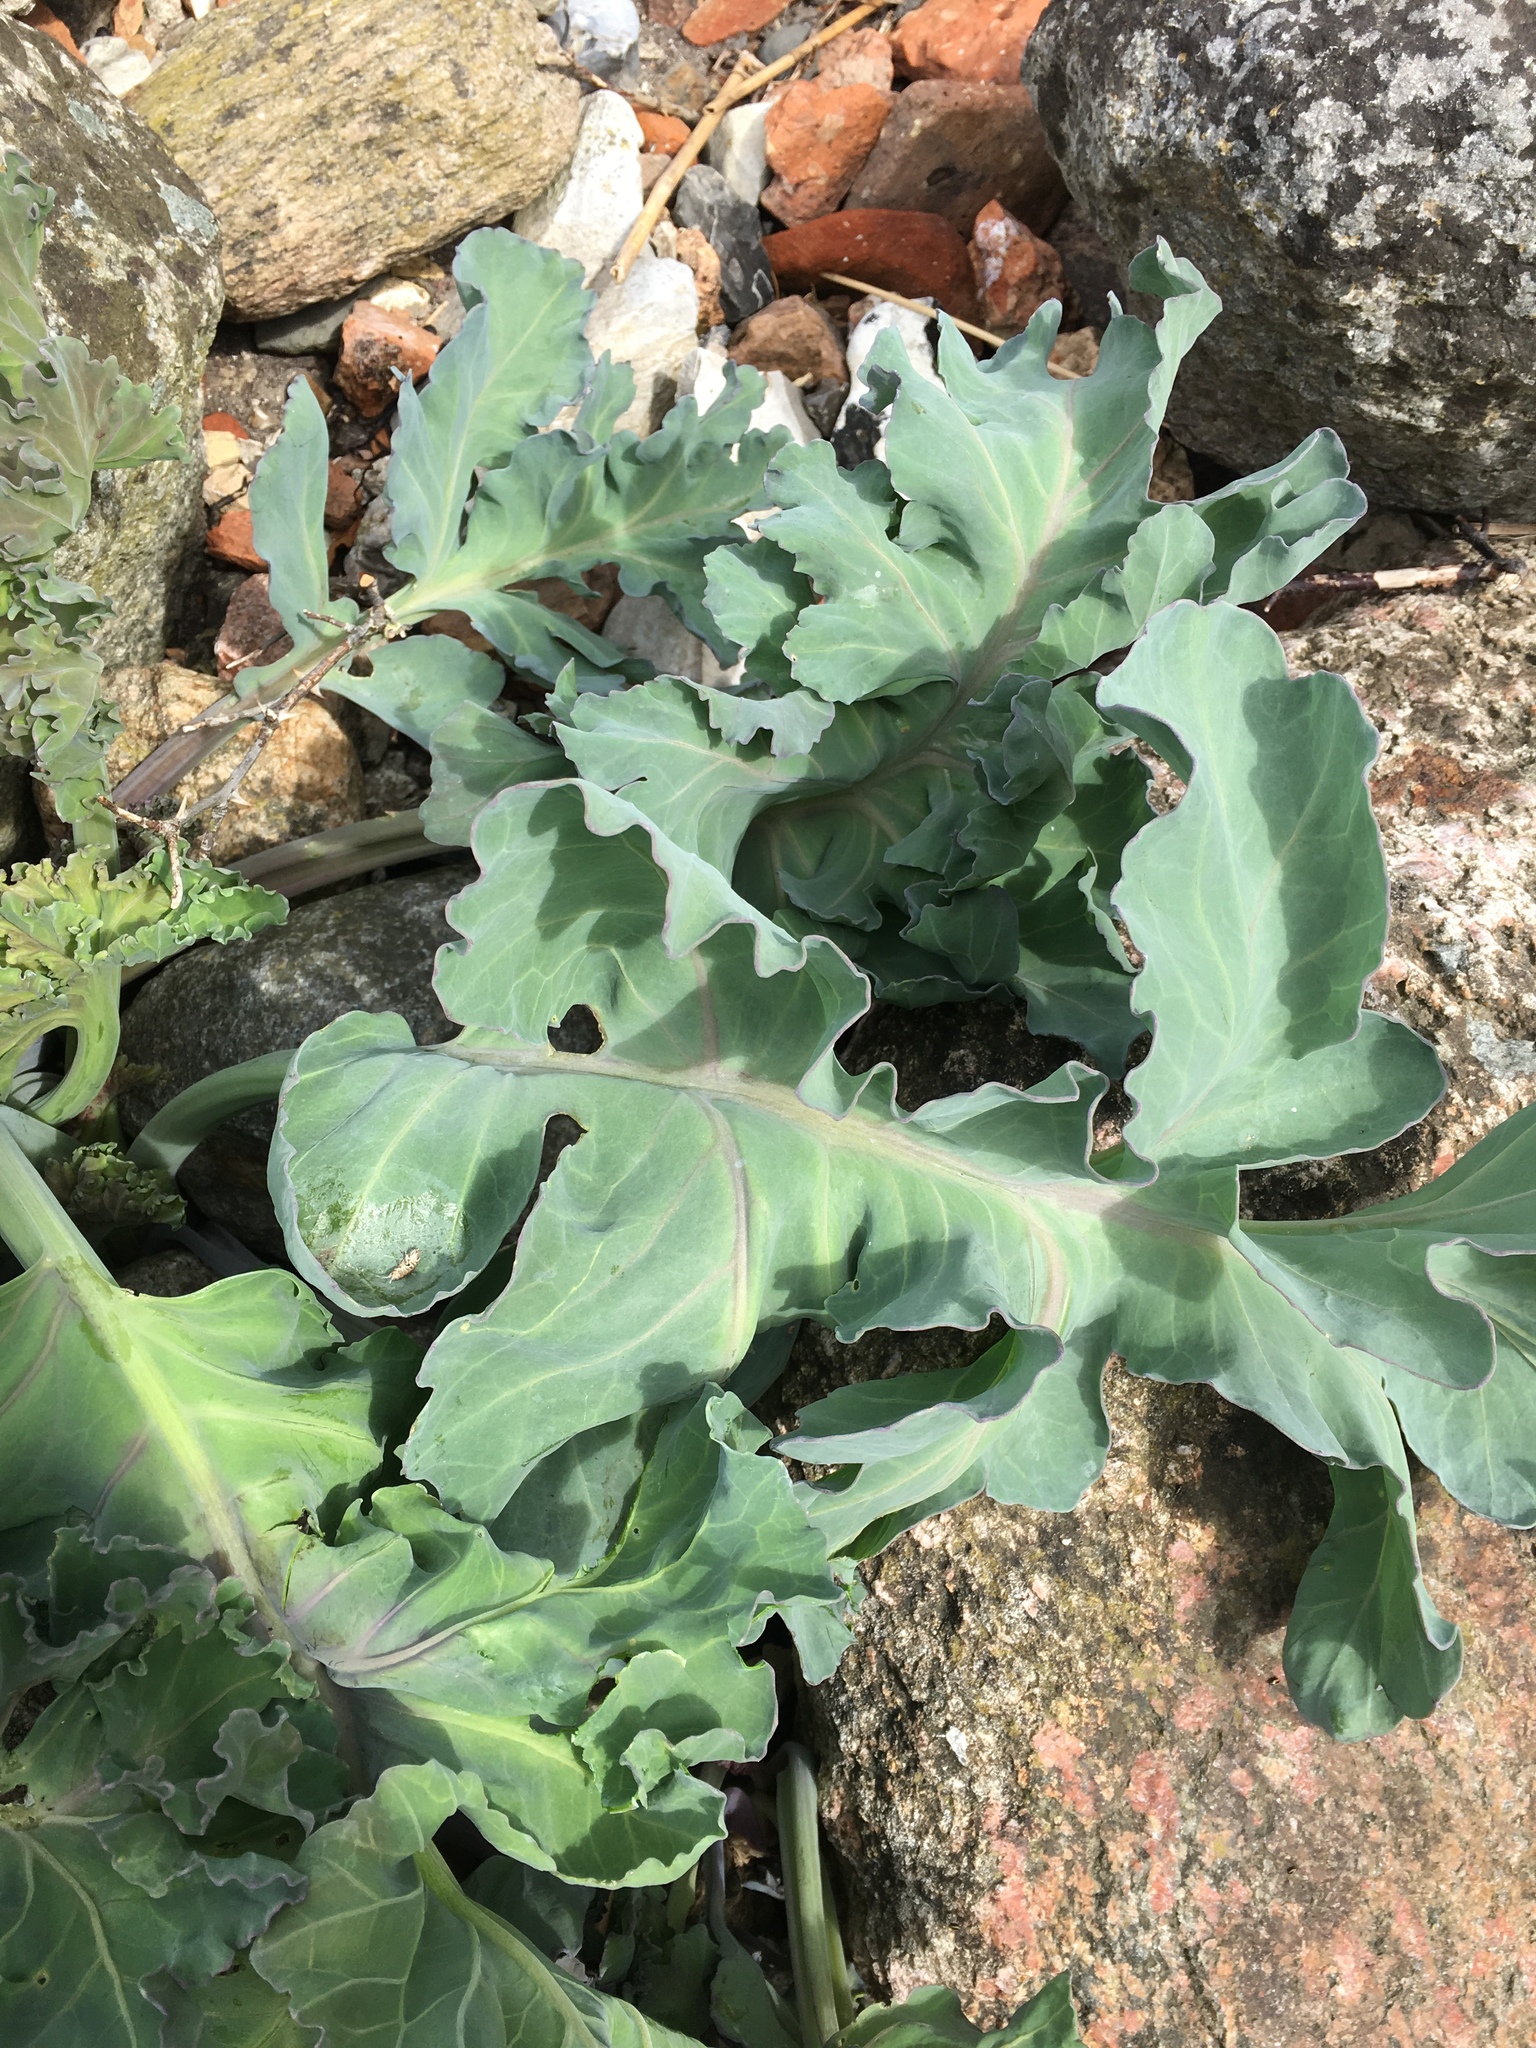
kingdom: Plantae
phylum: Tracheophyta
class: Magnoliopsida
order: Brassicales
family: Brassicaceae
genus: Crambe
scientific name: Crambe maritima
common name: Sea-kale
